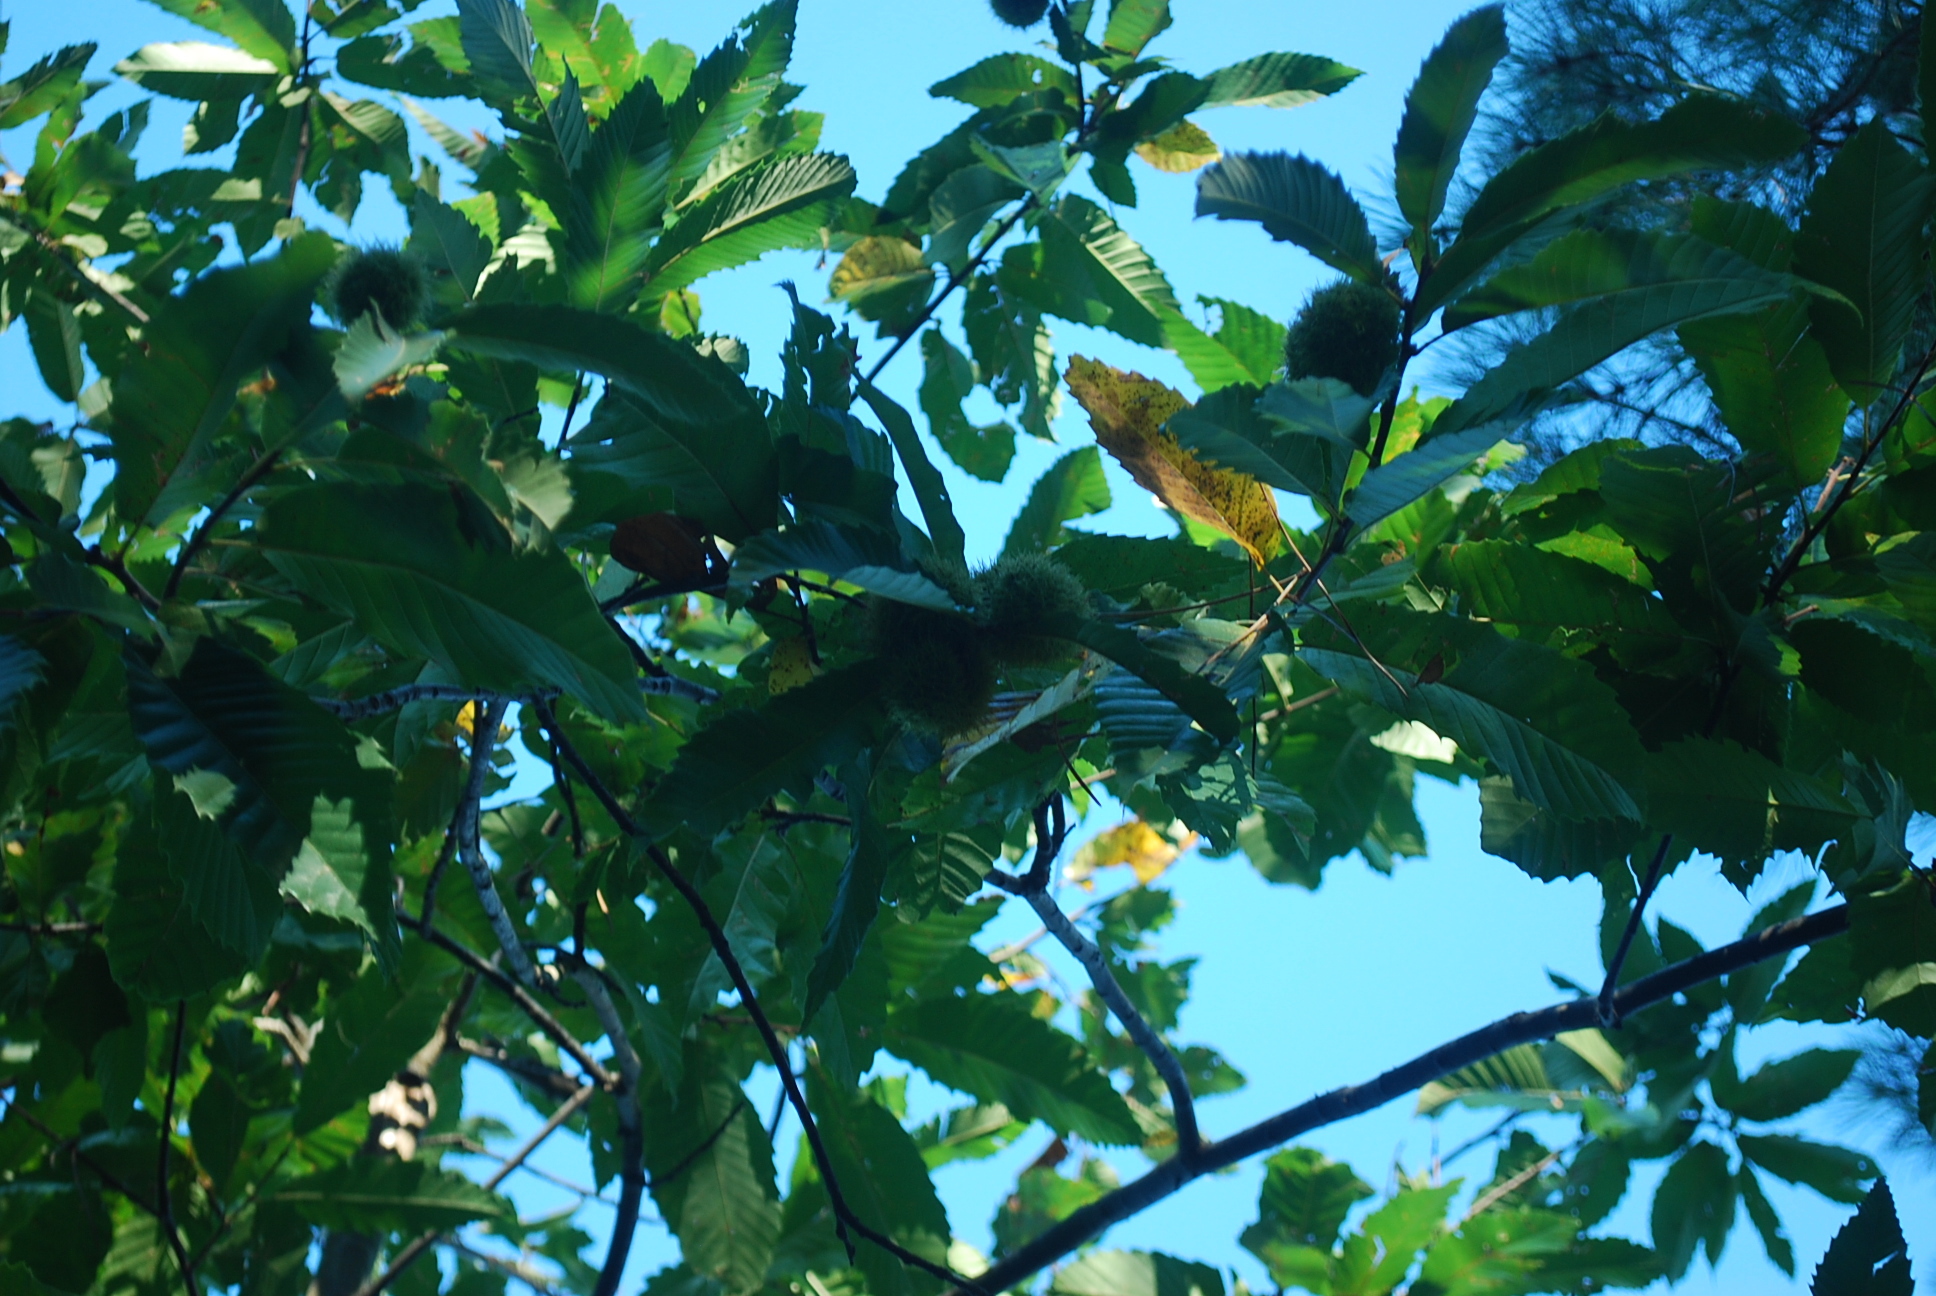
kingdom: Plantae
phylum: Tracheophyta
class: Magnoliopsida
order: Fagales
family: Fagaceae
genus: Castanea
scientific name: Castanea sativa
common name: Sweet chestnut
